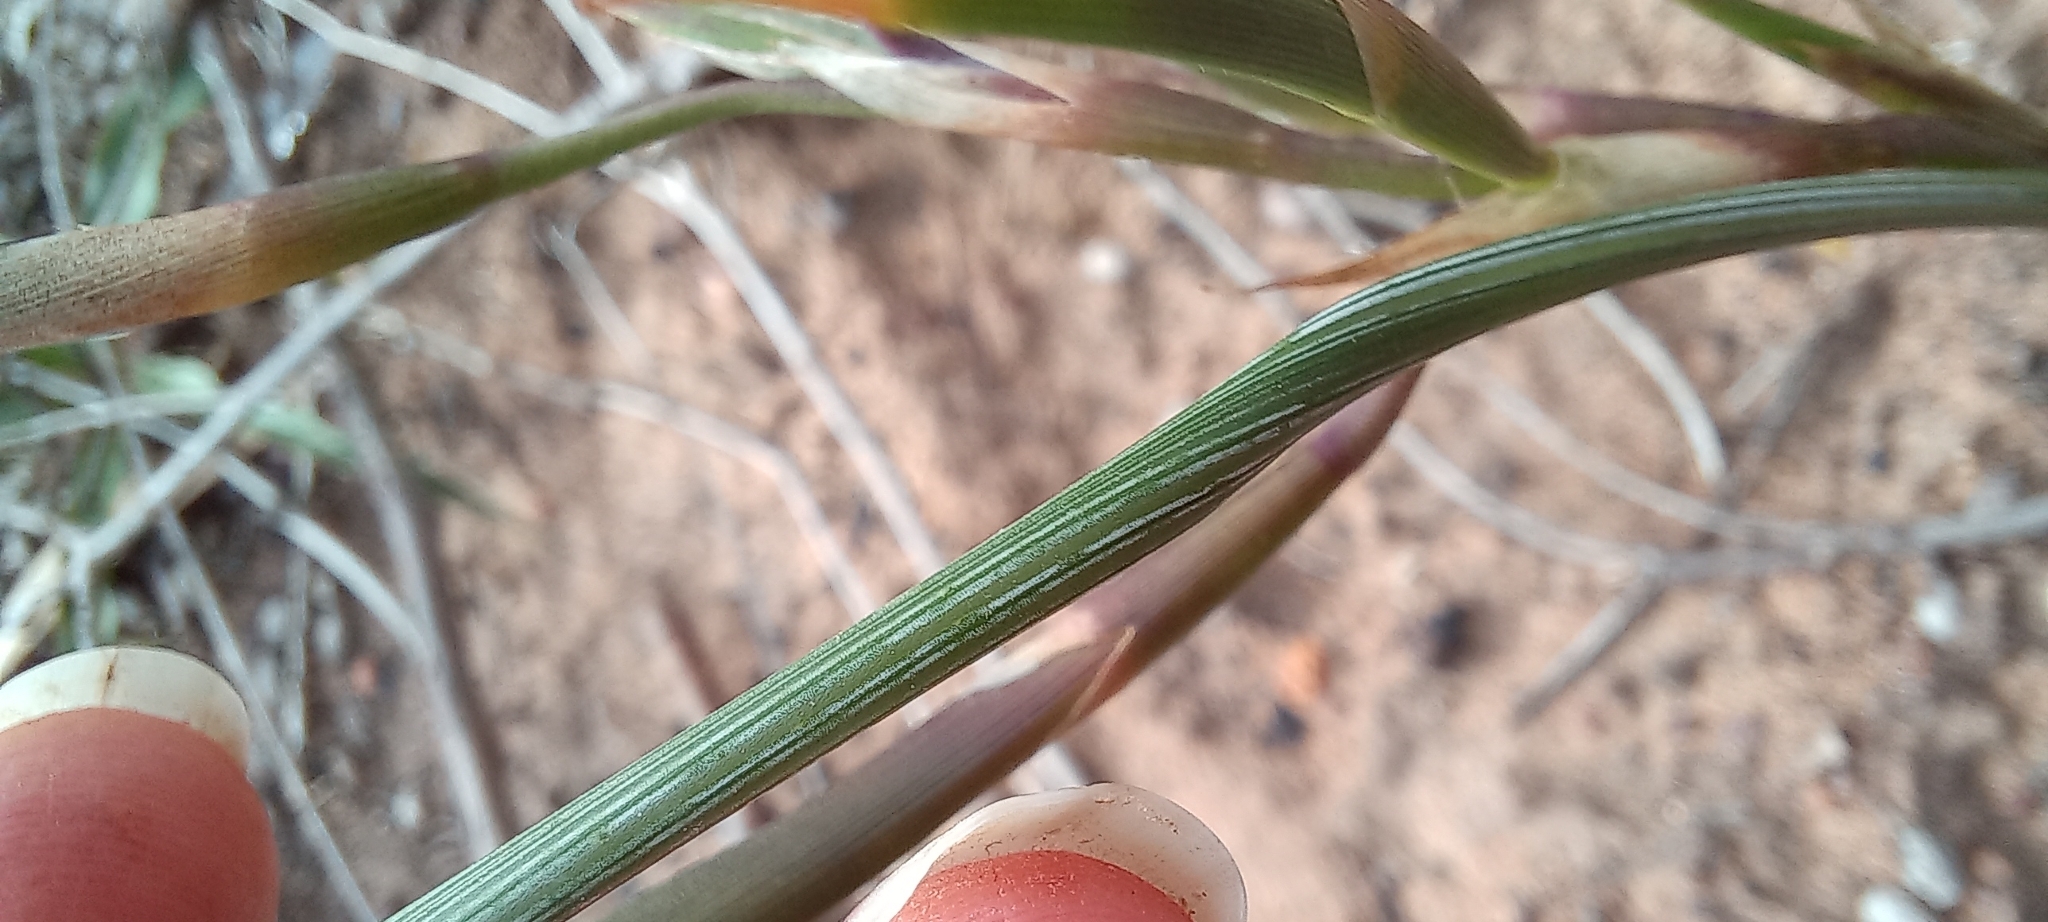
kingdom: Plantae
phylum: Tracheophyta
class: Liliopsida
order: Asparagales
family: Iridaceae
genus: Moraea
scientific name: Moraea fugax
